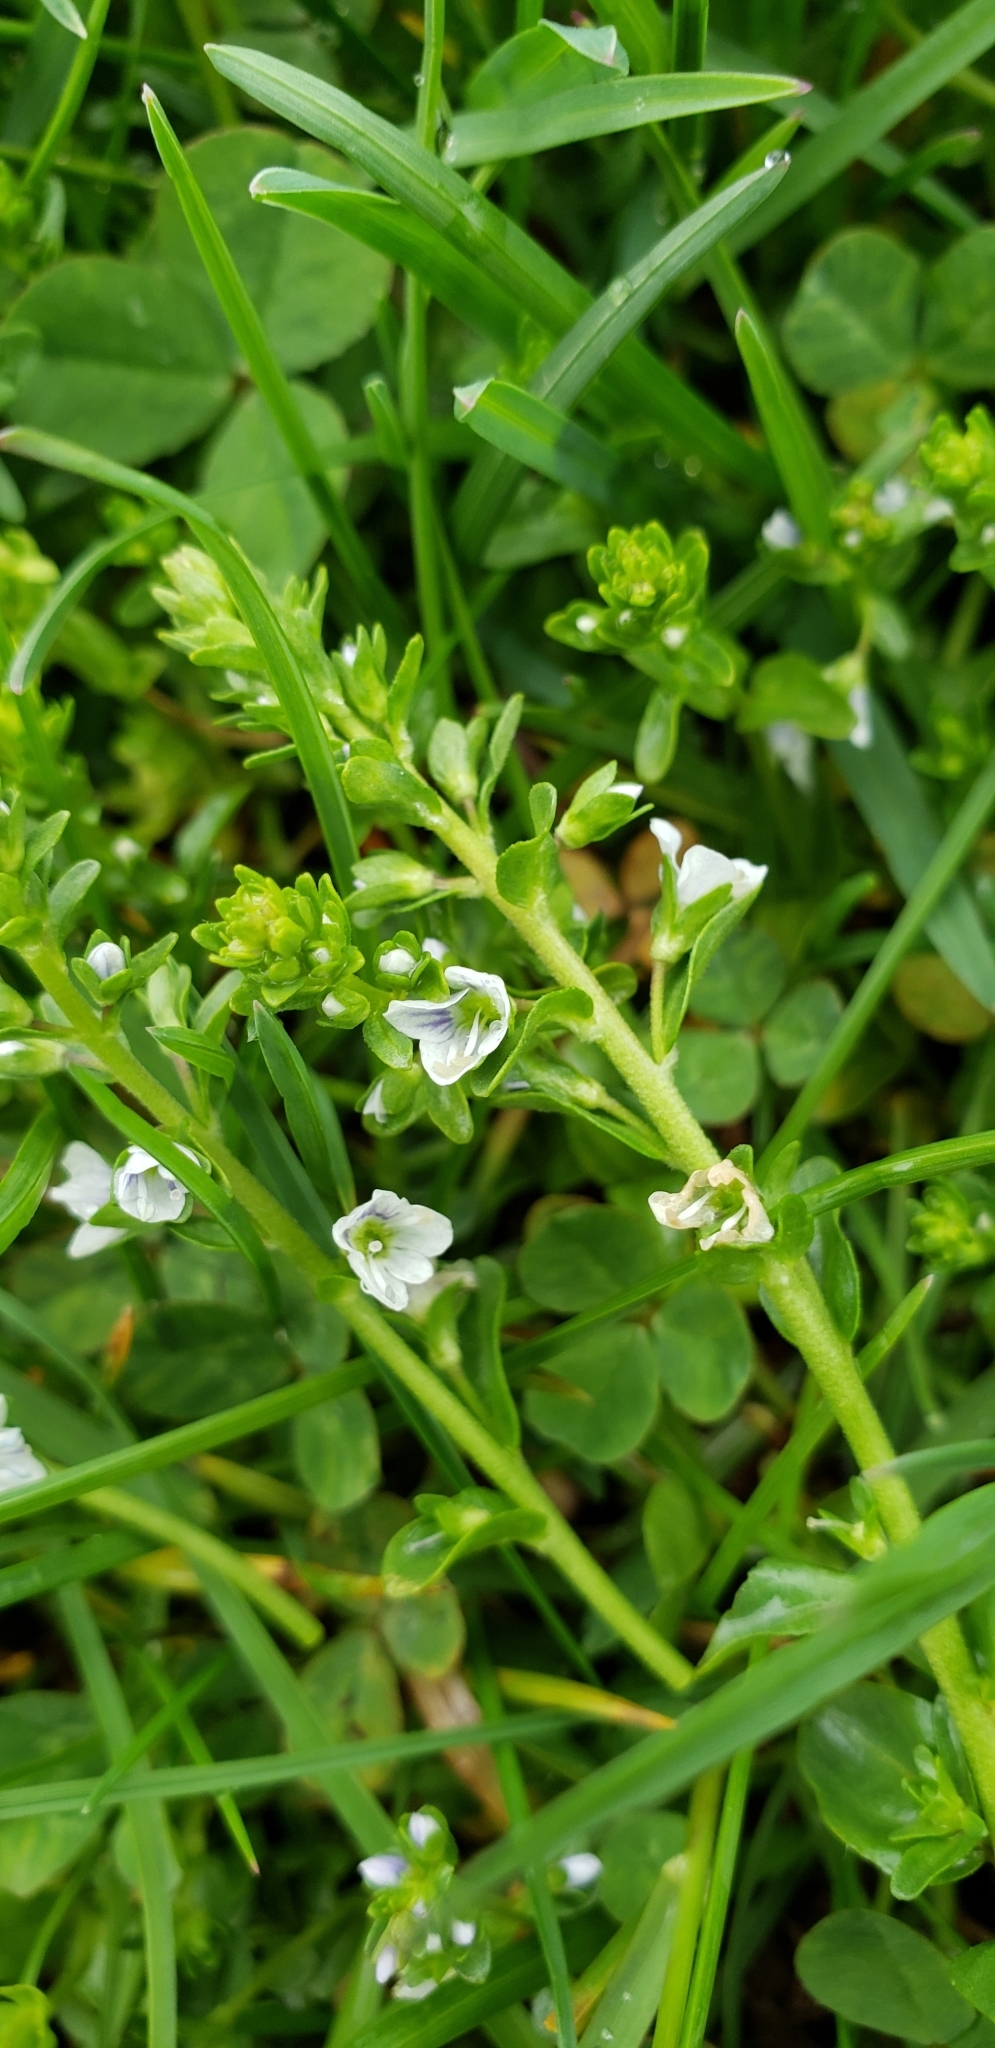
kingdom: Plantae
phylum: Tracheophyta
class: Magnoliopsida
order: Lamiales
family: Plantaginaceae
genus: Veronica
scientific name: Veronica serpyllifolia
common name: Thyme-leaved speedwell
